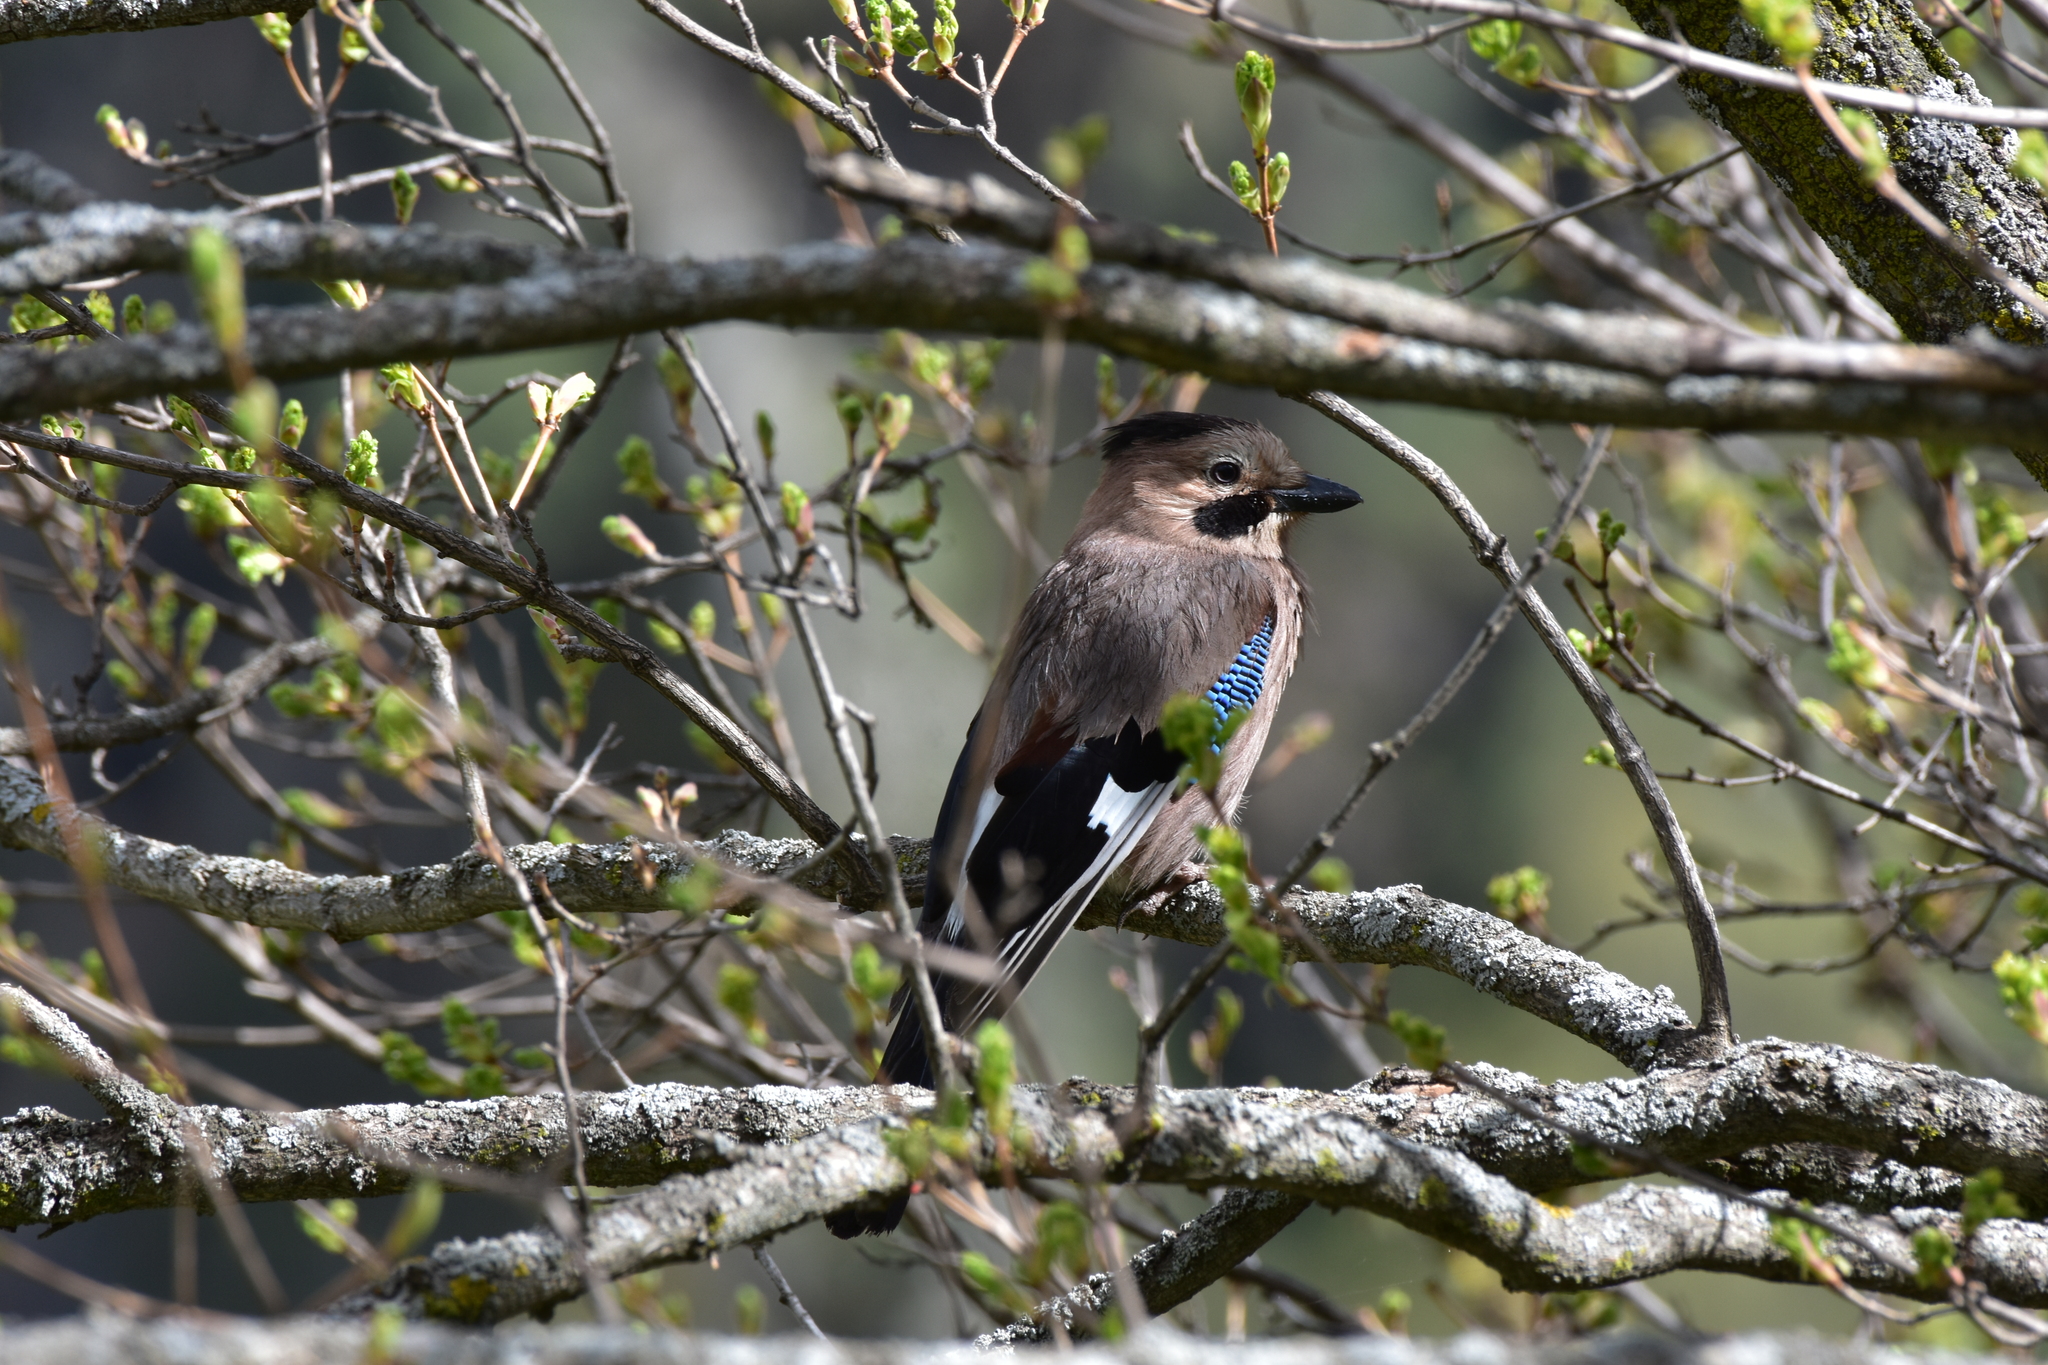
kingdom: Animalia
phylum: Chordata
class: Aves
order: Passeriformes
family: Corvidae
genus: Garrulus
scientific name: Garrulus glandarius
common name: Eurasian jay
